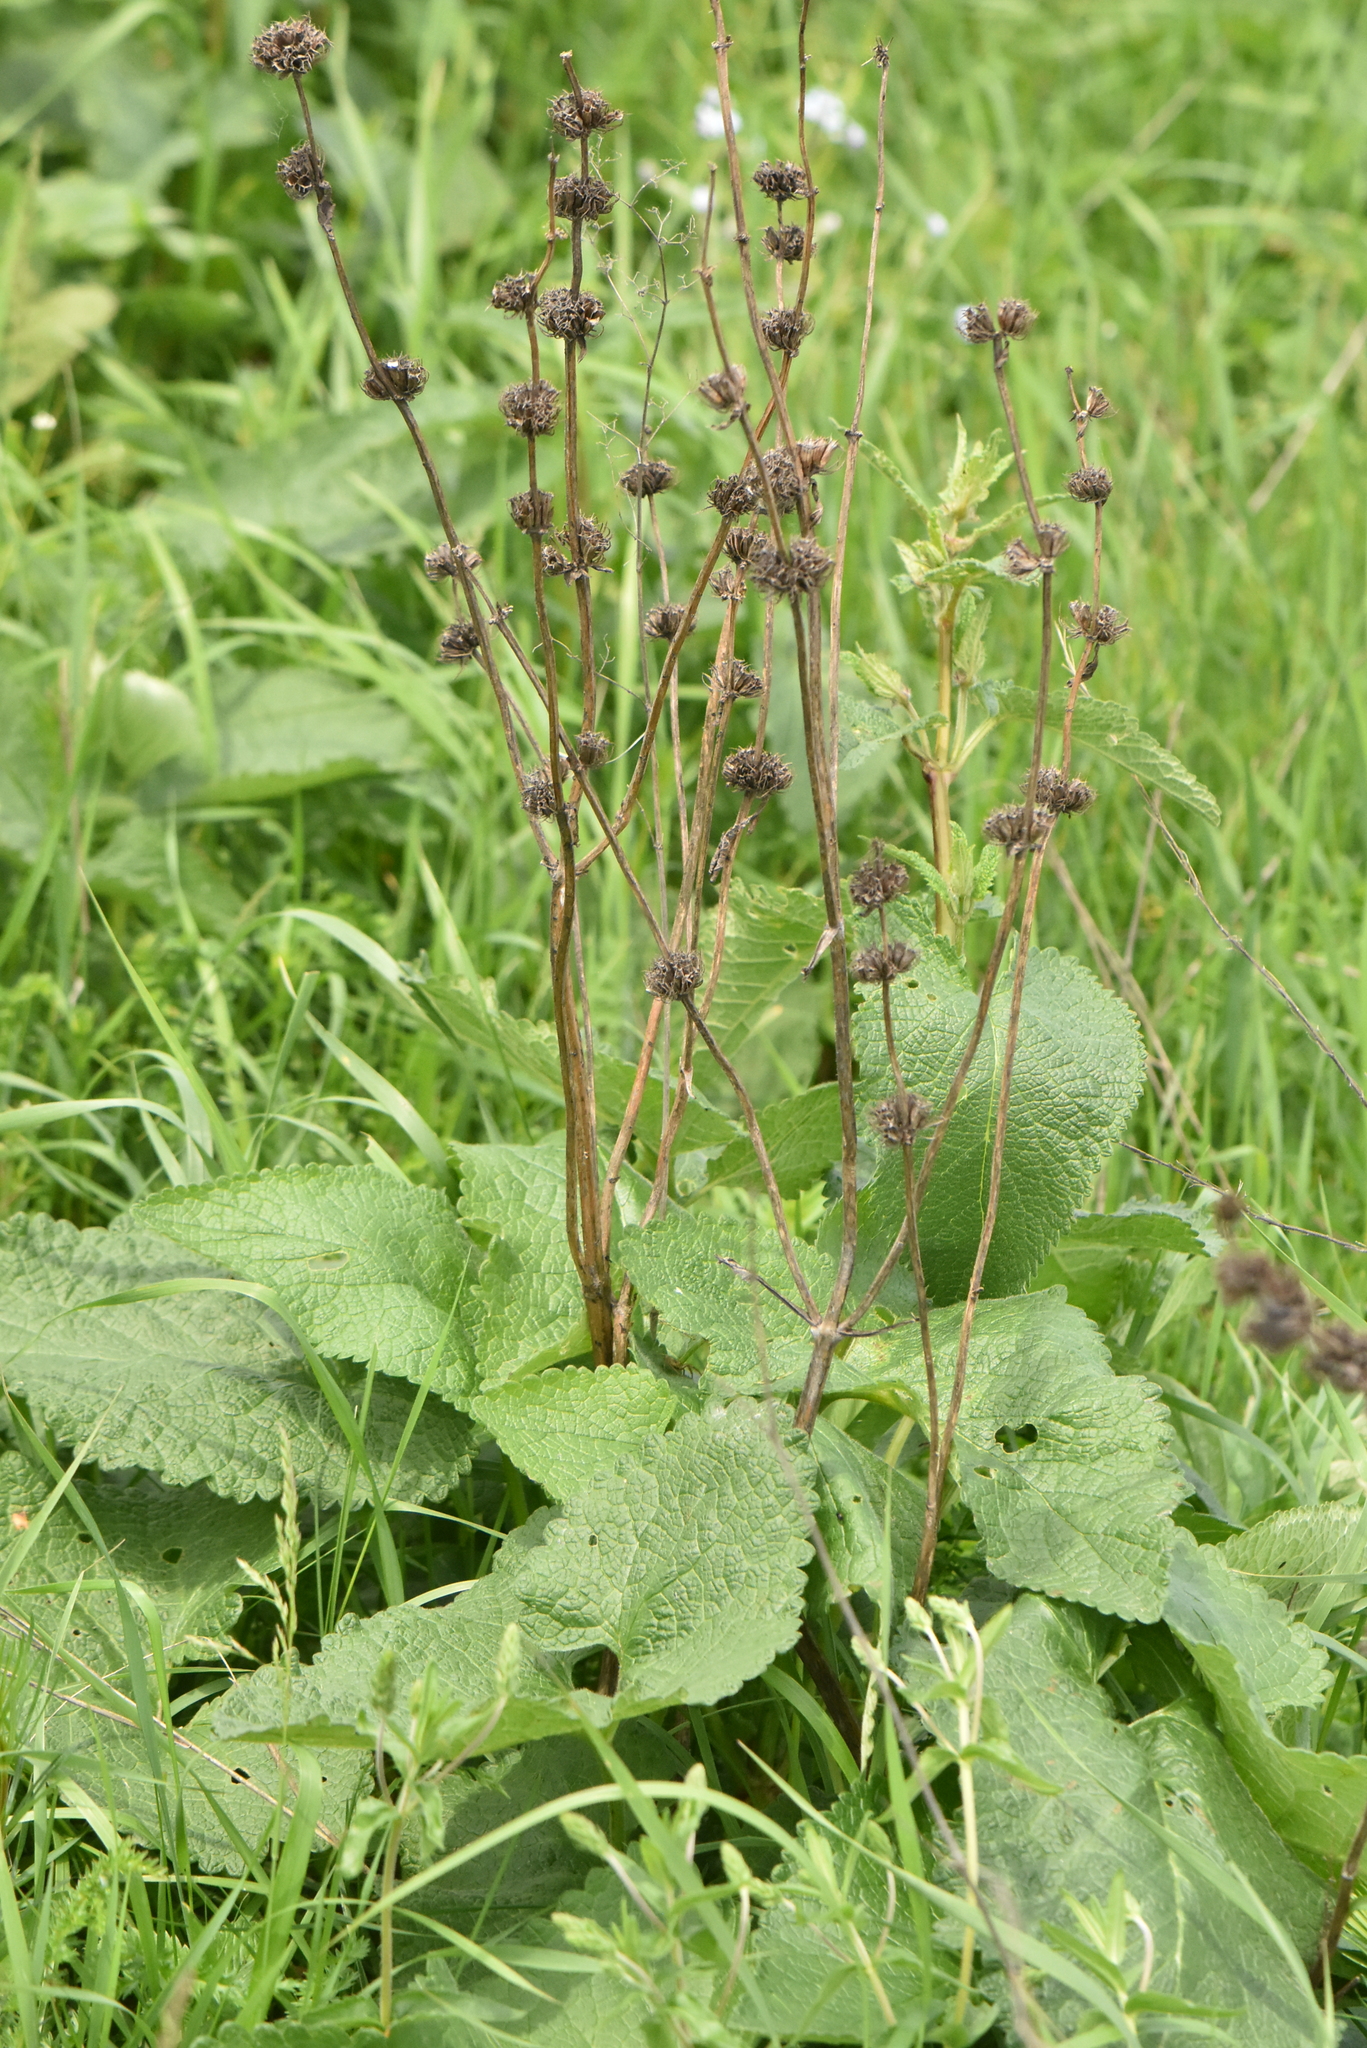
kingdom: Plantae
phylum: Tracheophyta
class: Magnoliopsida
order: Lamiales
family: Lamiaceae
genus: Phlomoides
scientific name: Phlomoides tuberosa
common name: Tuberous jerusalem sage
